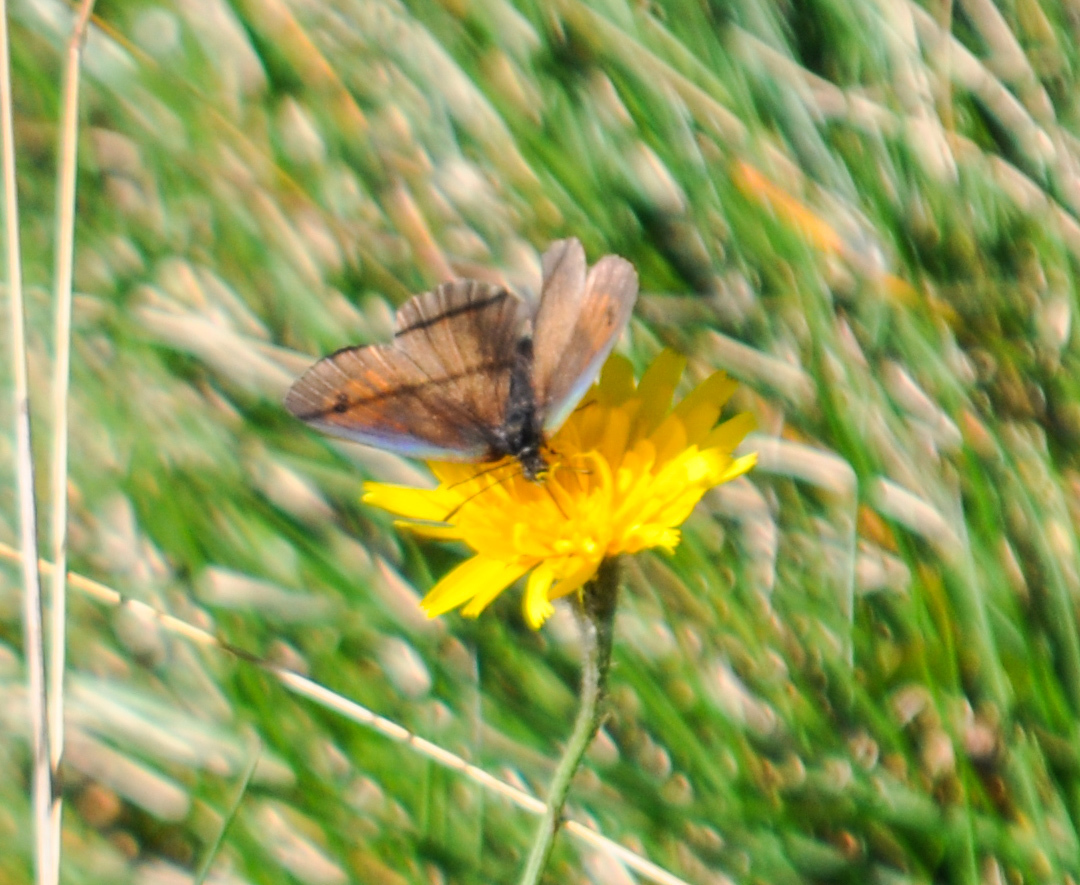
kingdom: Animalia
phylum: Arthropoda
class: Insecta
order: Lepidoptera
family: Nymphalidae
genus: Erebia
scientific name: Erebia tyndarus
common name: Swiss brassy ringlet
